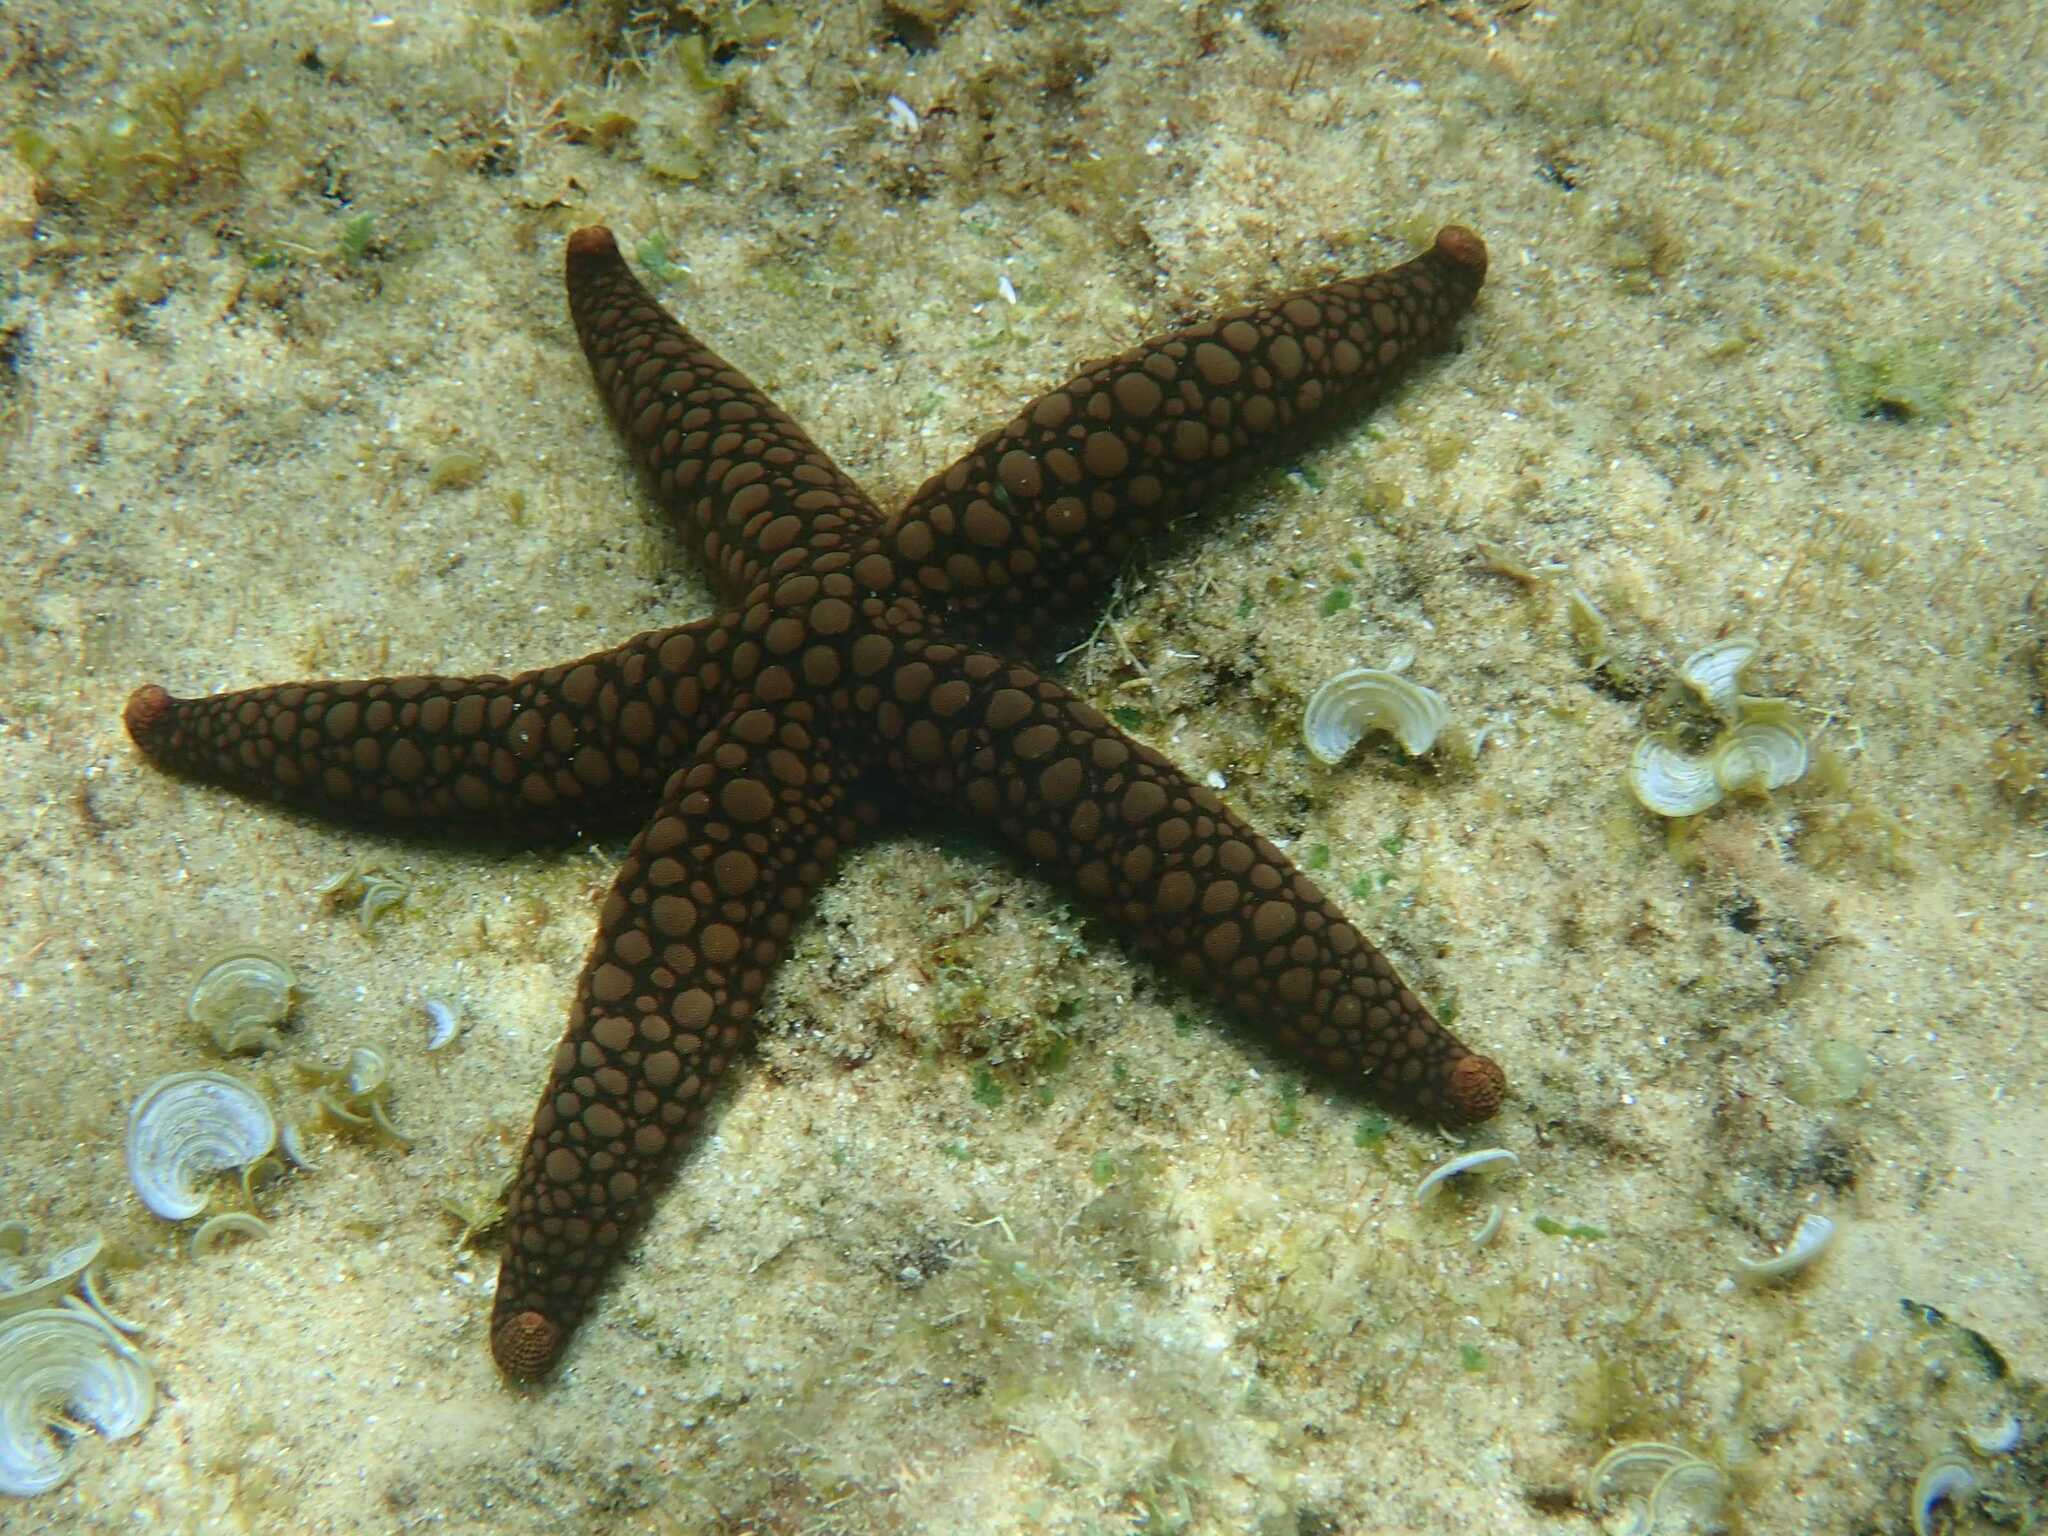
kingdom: Animalia
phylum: Echinodermata
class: Asteroidea
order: Valvatida
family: Ophidiasteridae
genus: Nardoa
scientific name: Nardoa variolata
